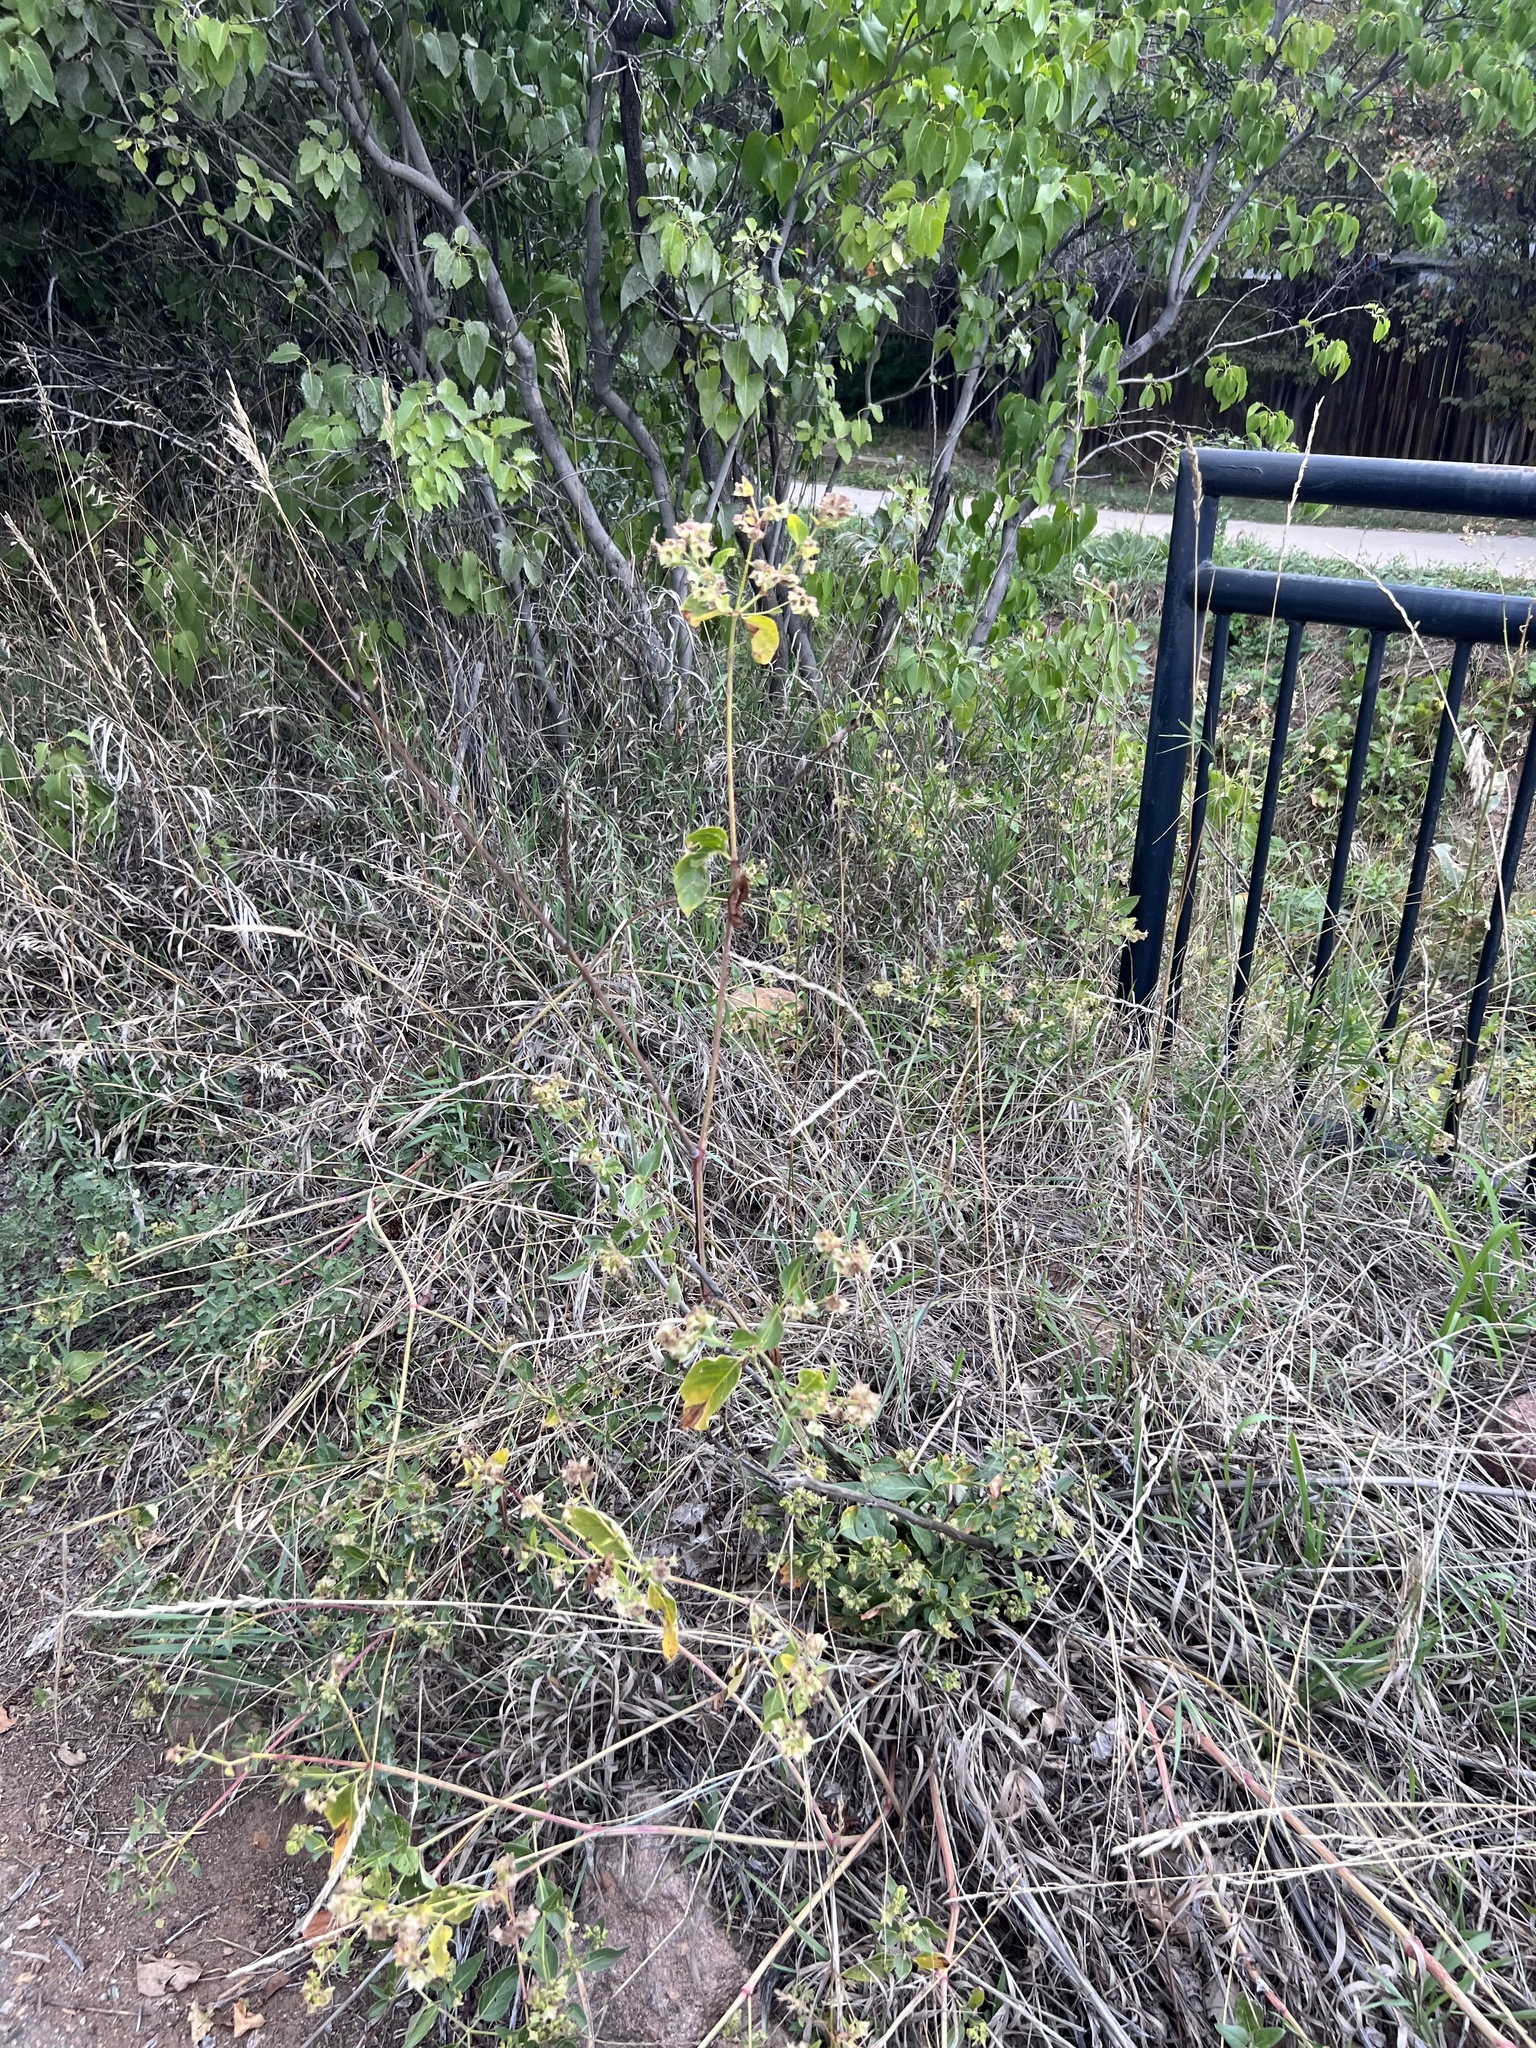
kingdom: Plantae
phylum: Tracheophyta
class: Magnoliopsida
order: Caryophyllales
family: Nyctaginaceae
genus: Mirabilis
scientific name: Mirabilis nyctaginea
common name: Umbrella wort
